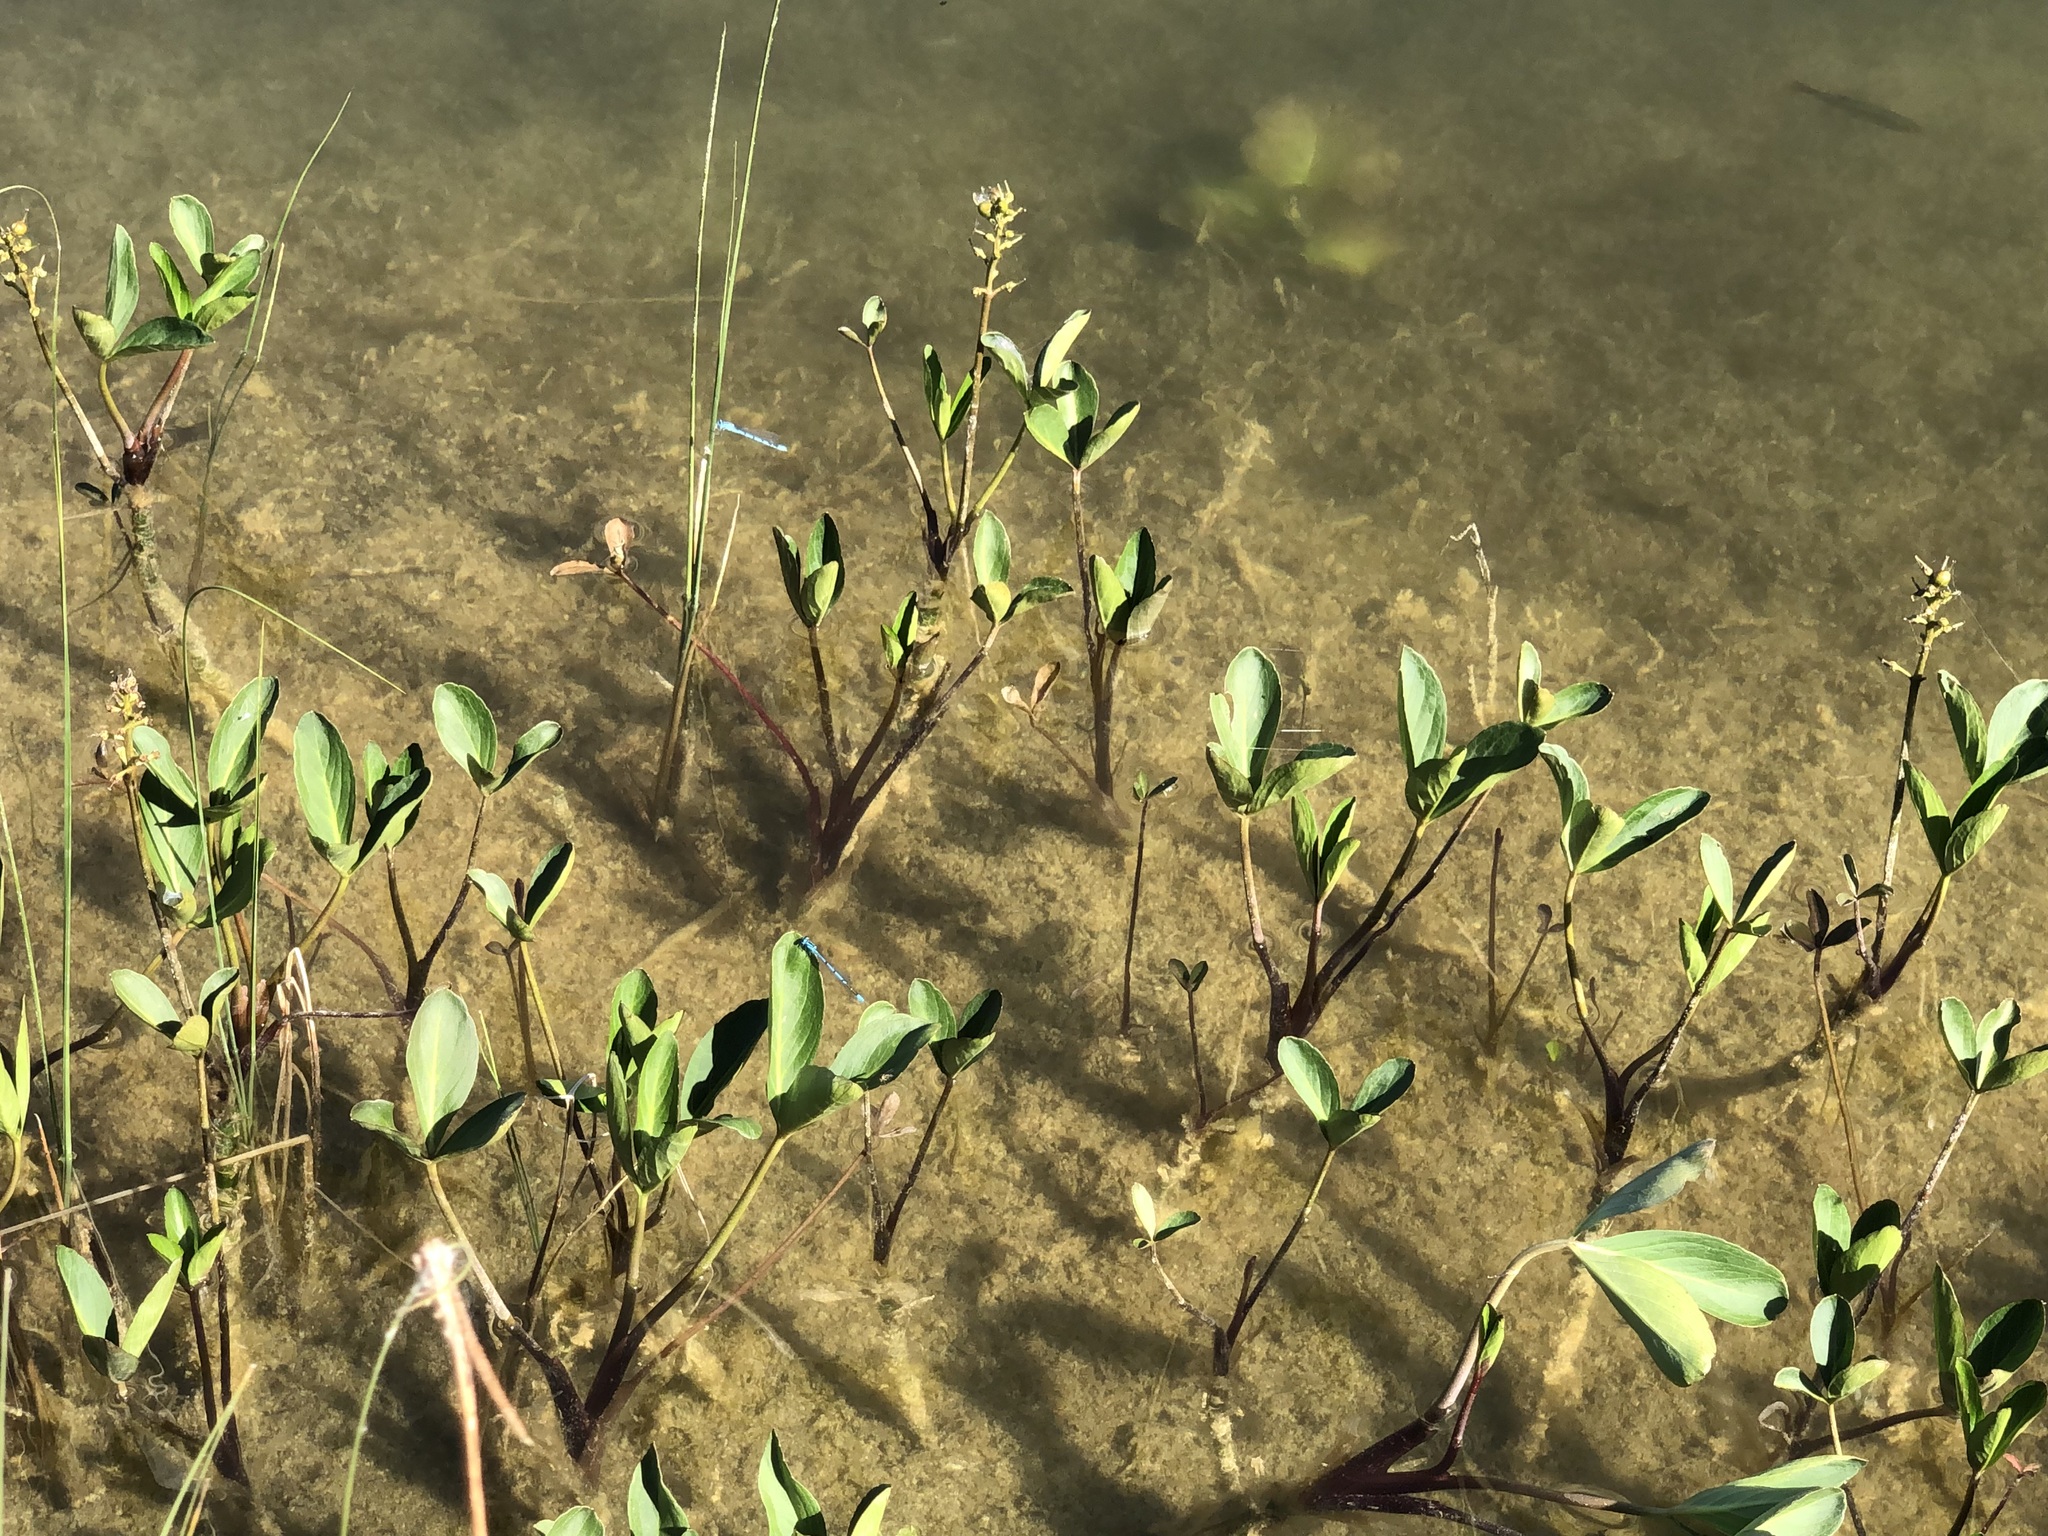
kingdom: Plantae
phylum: Tracheophyta
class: Magnoliopsida
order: Asterales
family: Menyanthaceae
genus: Menyanthes
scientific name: Menyanthes trifoliata
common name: Bogbean
